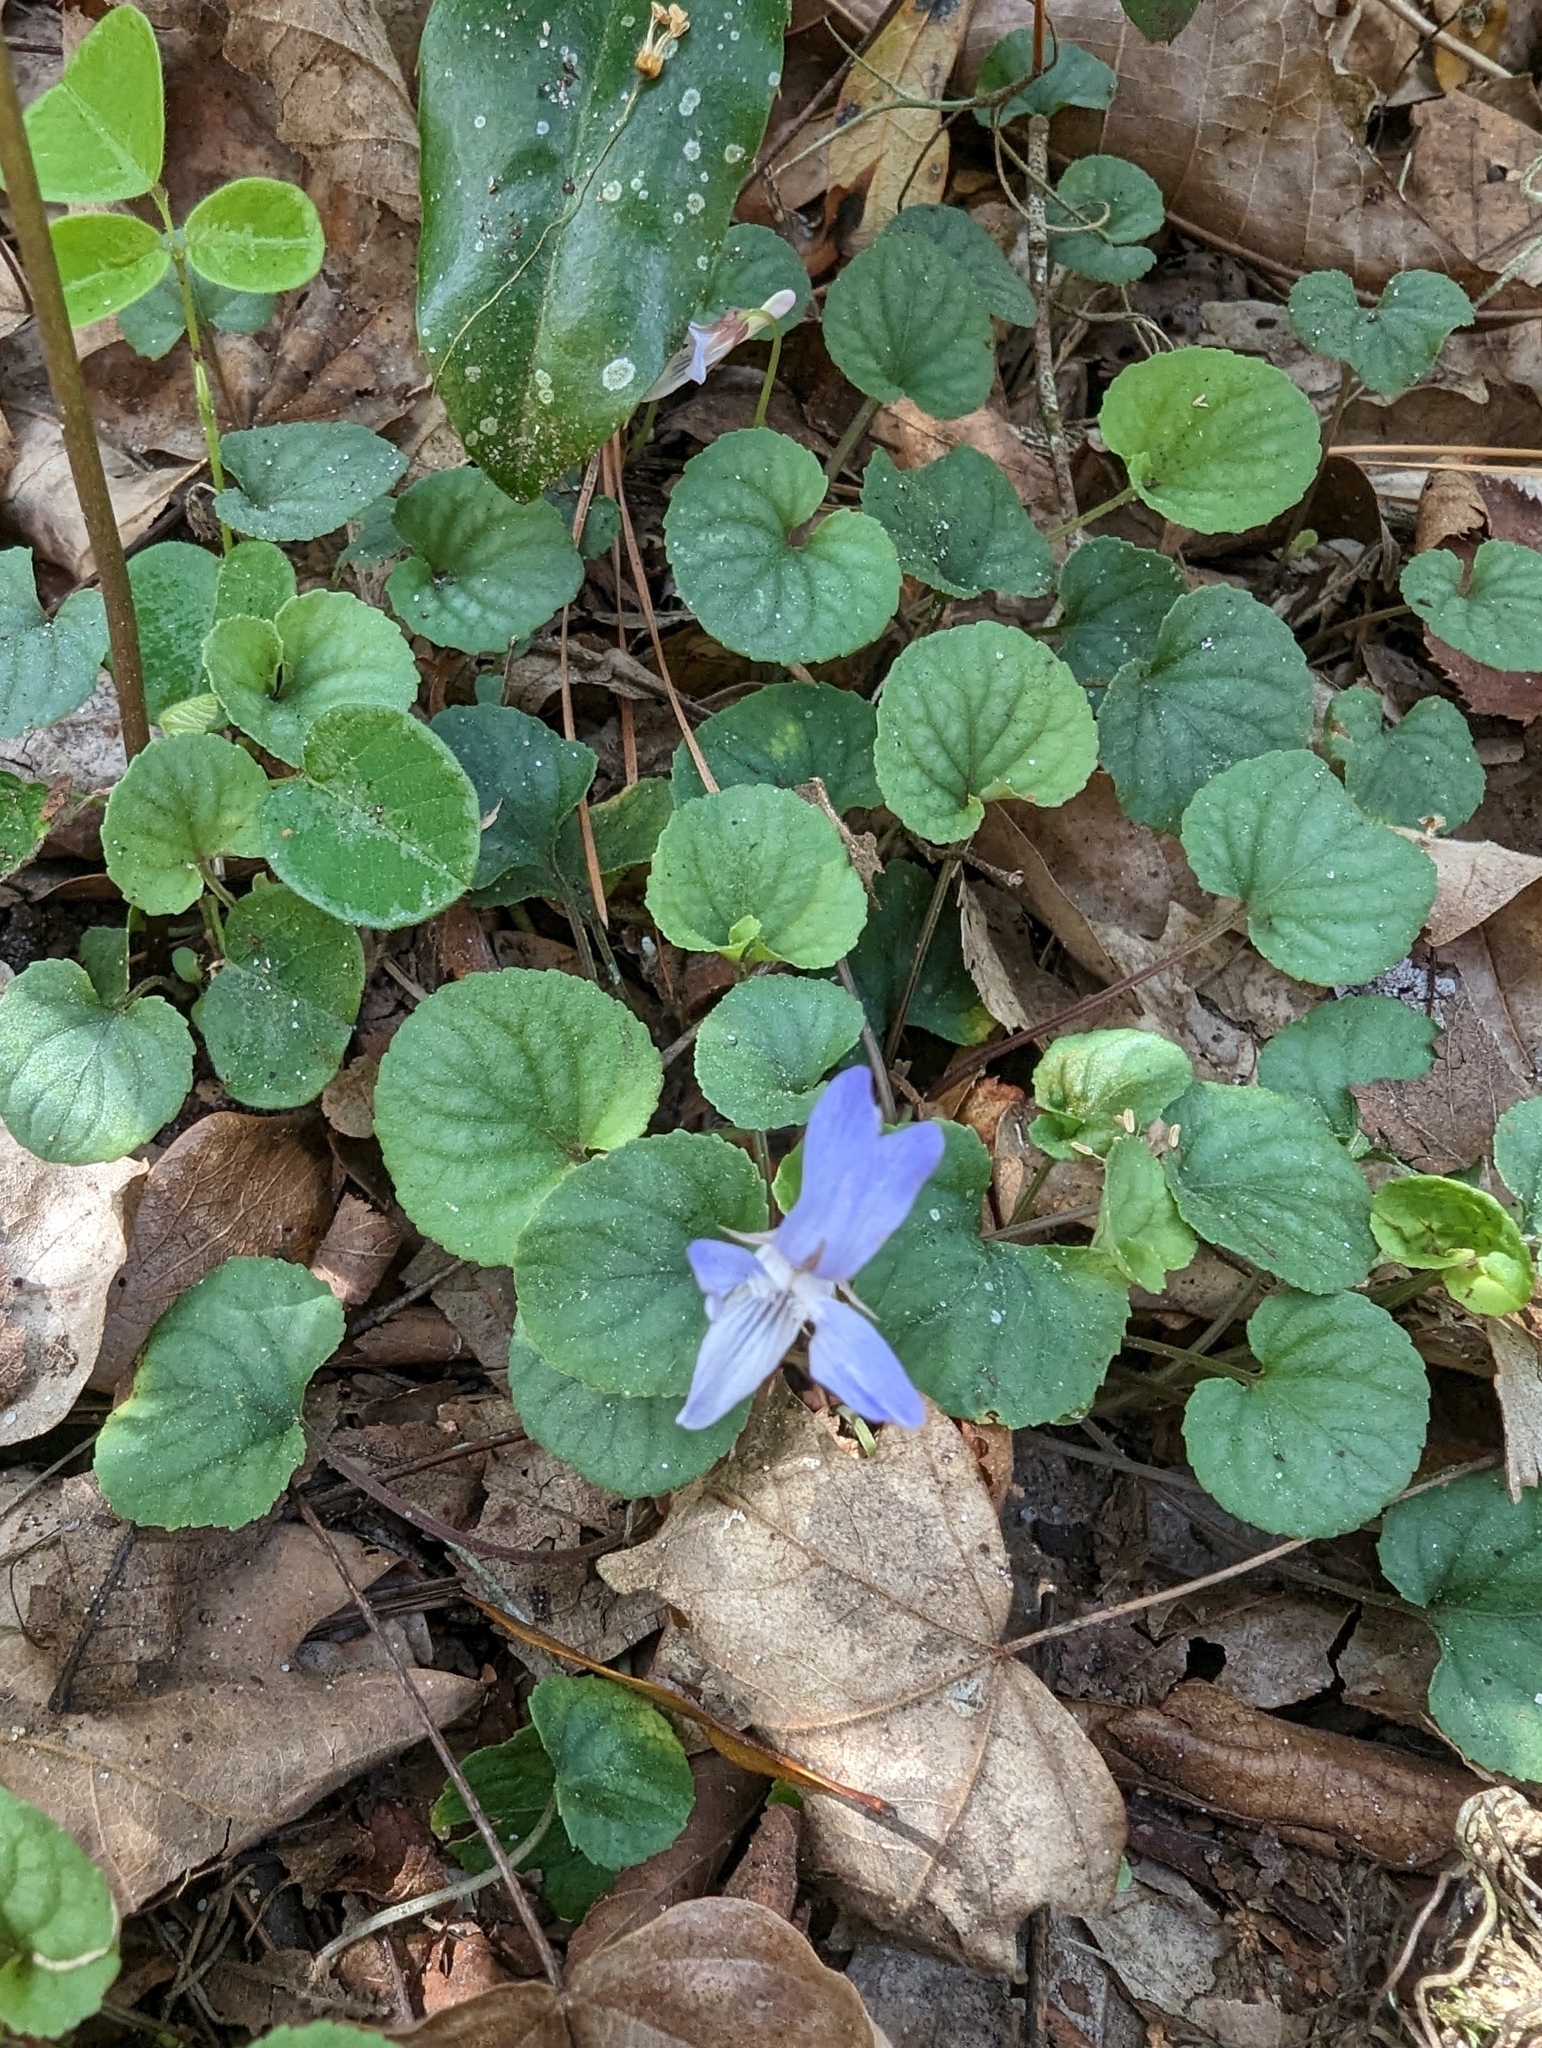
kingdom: Plantae
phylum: Tracheophyta
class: Magnoliopsida
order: Malpighiales
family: Violaceae
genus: Viola
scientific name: Viola walteri
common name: Prostrate southern violet
